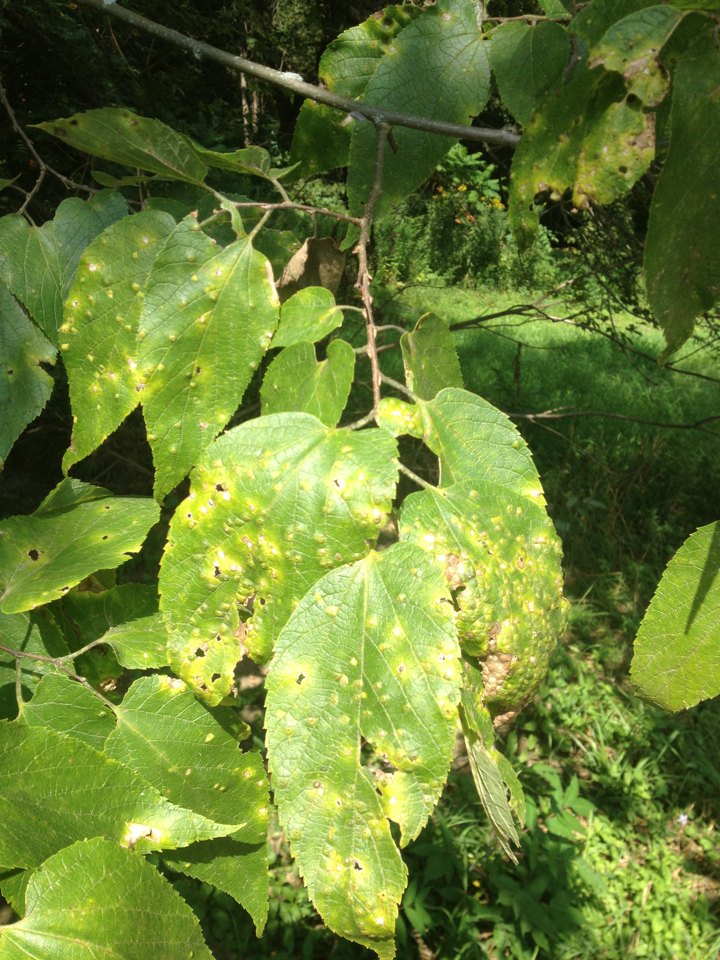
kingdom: Plantae
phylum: Tracheophyta
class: Magnoliopsida
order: Rosales
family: Cannabaceae
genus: Celtis
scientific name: Celtis occidentalis
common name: Common hackberry
